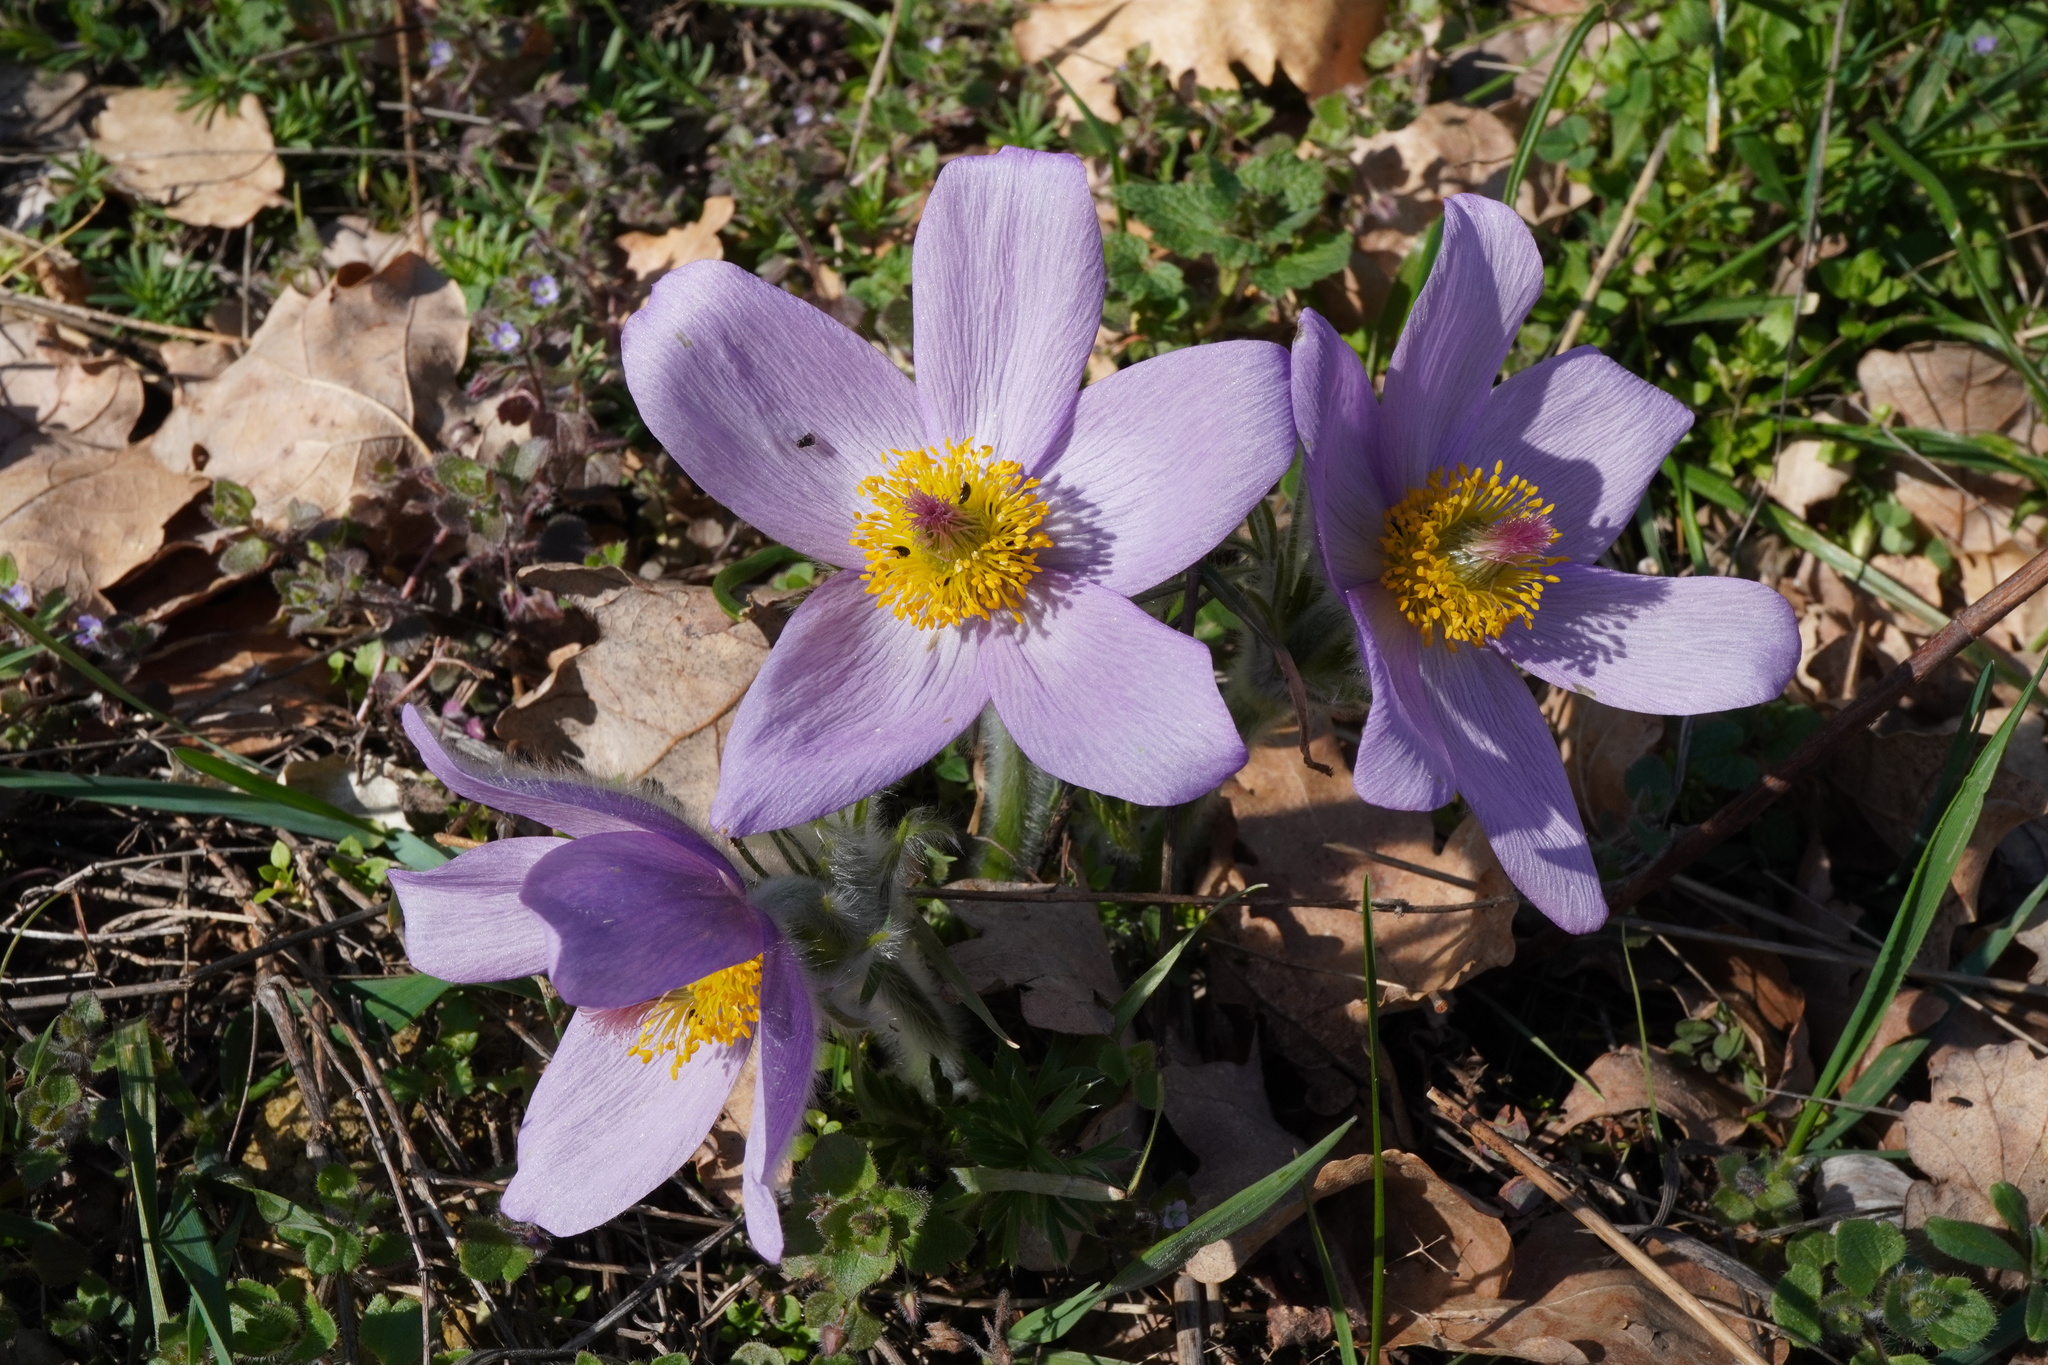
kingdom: Plantae
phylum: Tracheophyta
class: Magnoliopsida
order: Ranunculales
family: Ranunculaceae
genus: Pulsatilla
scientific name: Pulsatilla grandis
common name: Greater pasque flower
